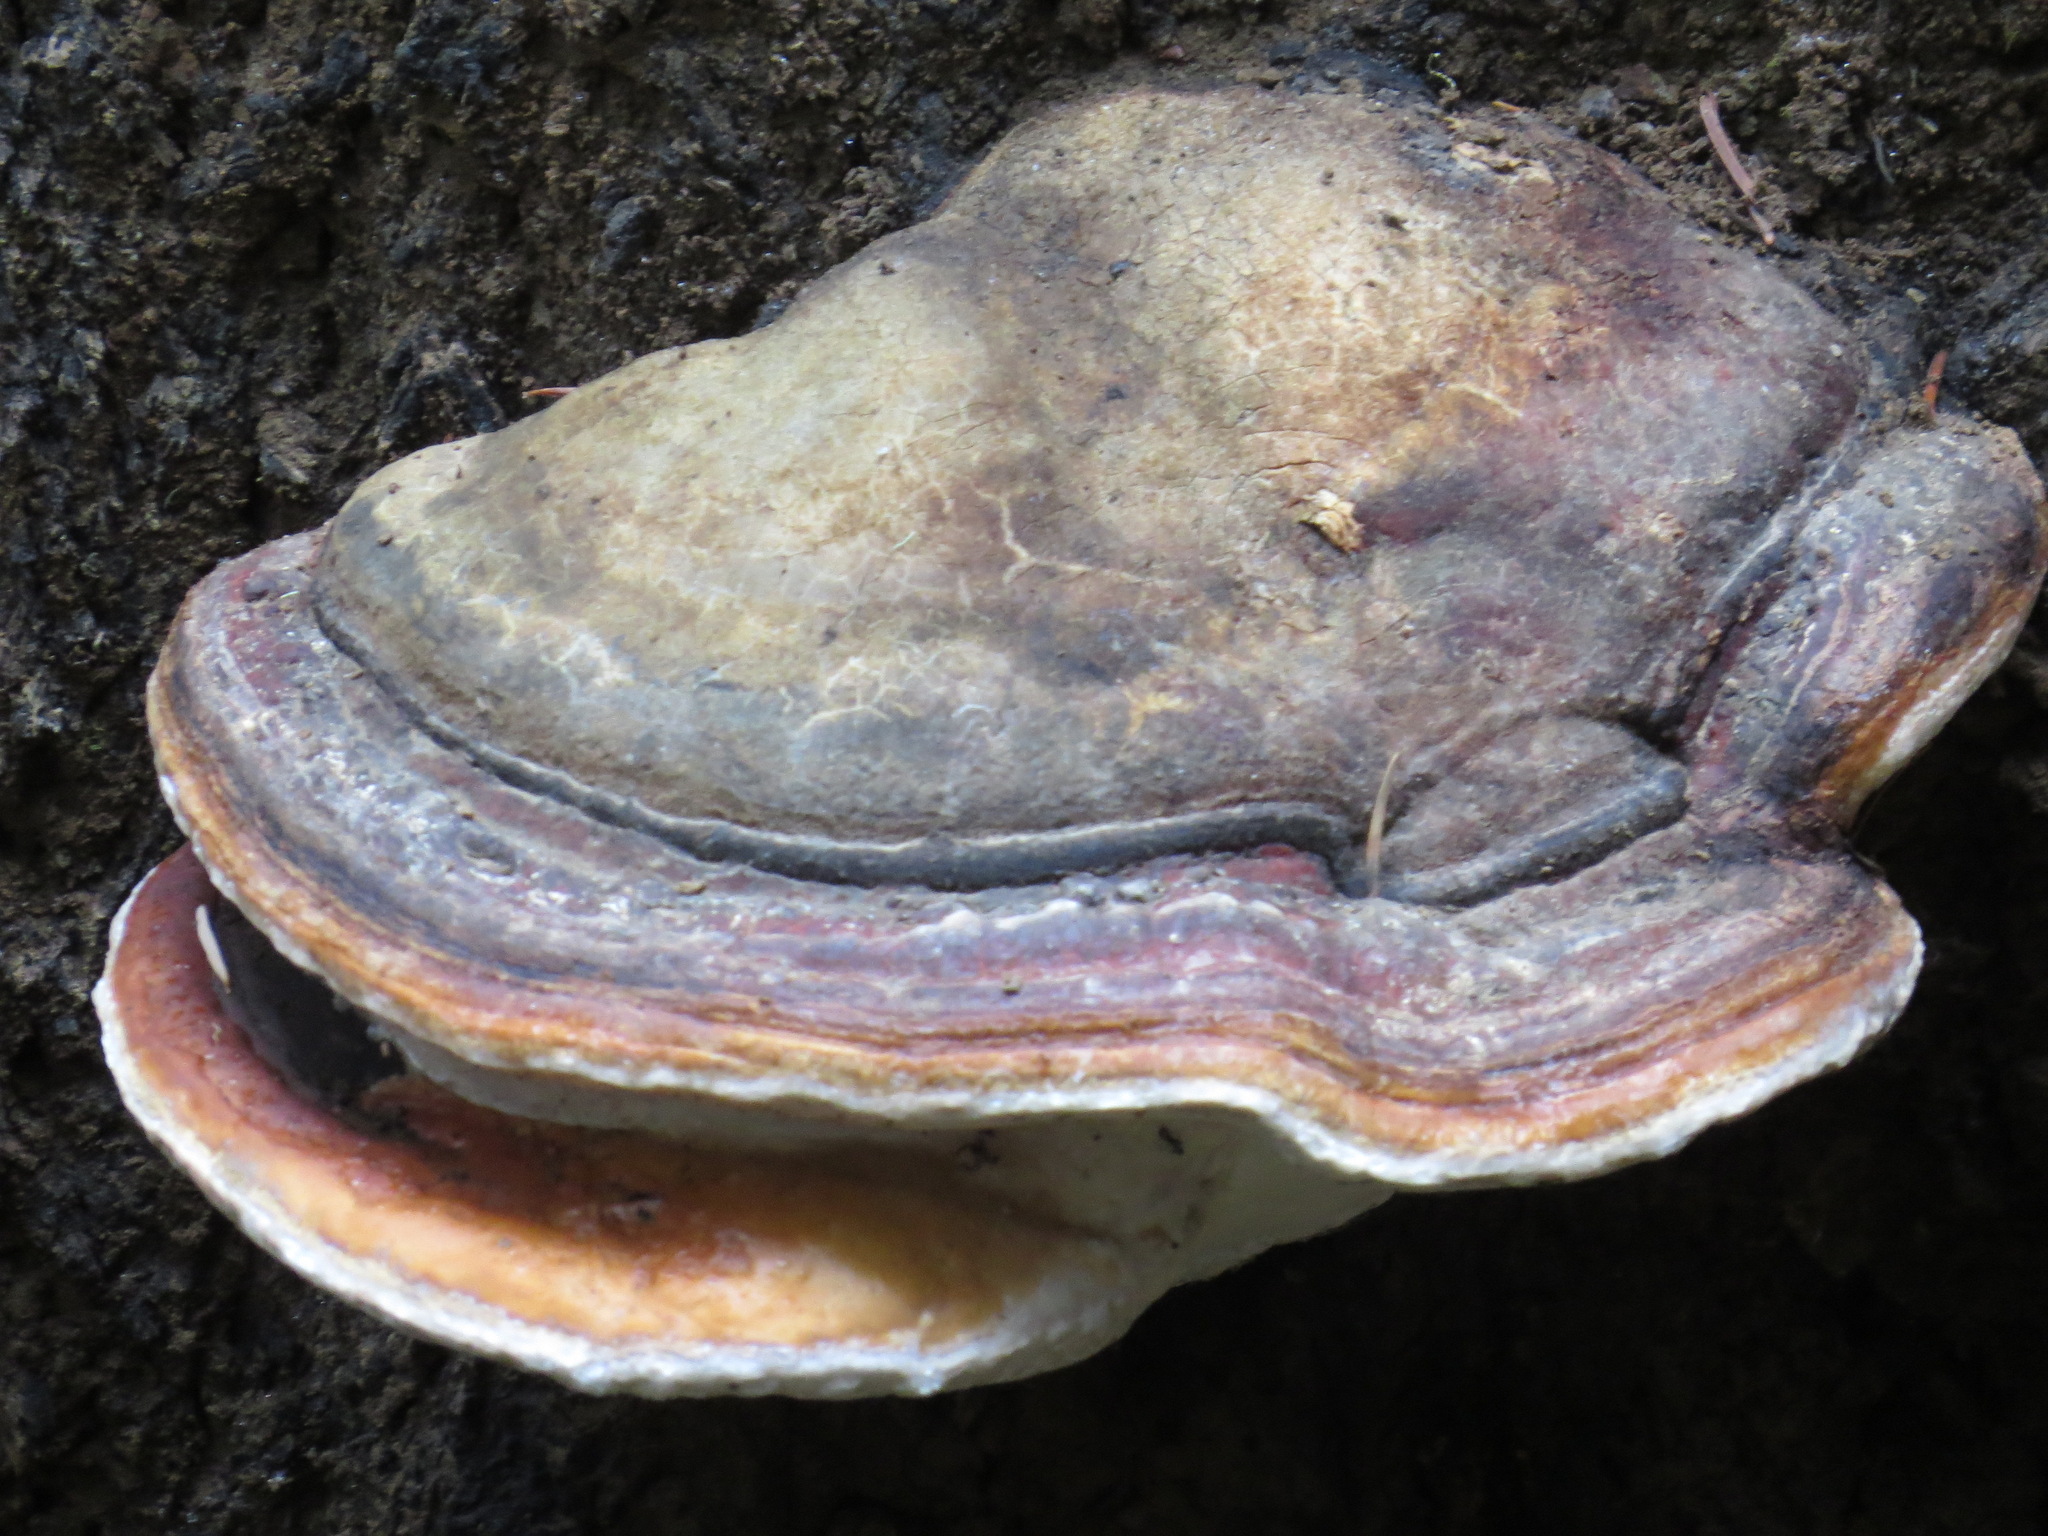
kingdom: Fungi
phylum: Basidiomycota
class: Agaricomycetes
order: Polyporales
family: Fomitopsidaceae
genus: Fomitopsis
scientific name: Fomitopsis mounceae
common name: Northern red belt
